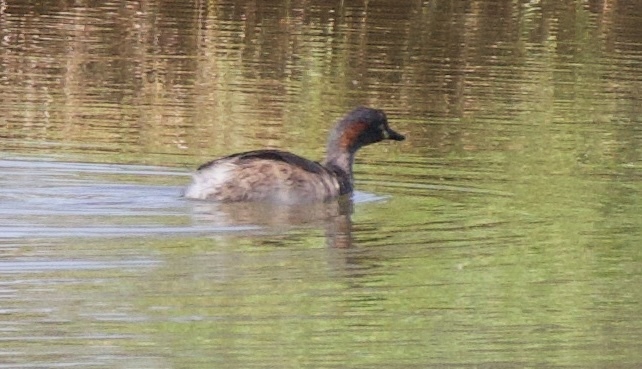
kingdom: Animalia
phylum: Chordata
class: Aves
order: Podicipediformes
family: Podicipedidae
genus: Tachybaptus
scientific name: Tachybaptus novaehollandiae
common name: Australasian grebe
